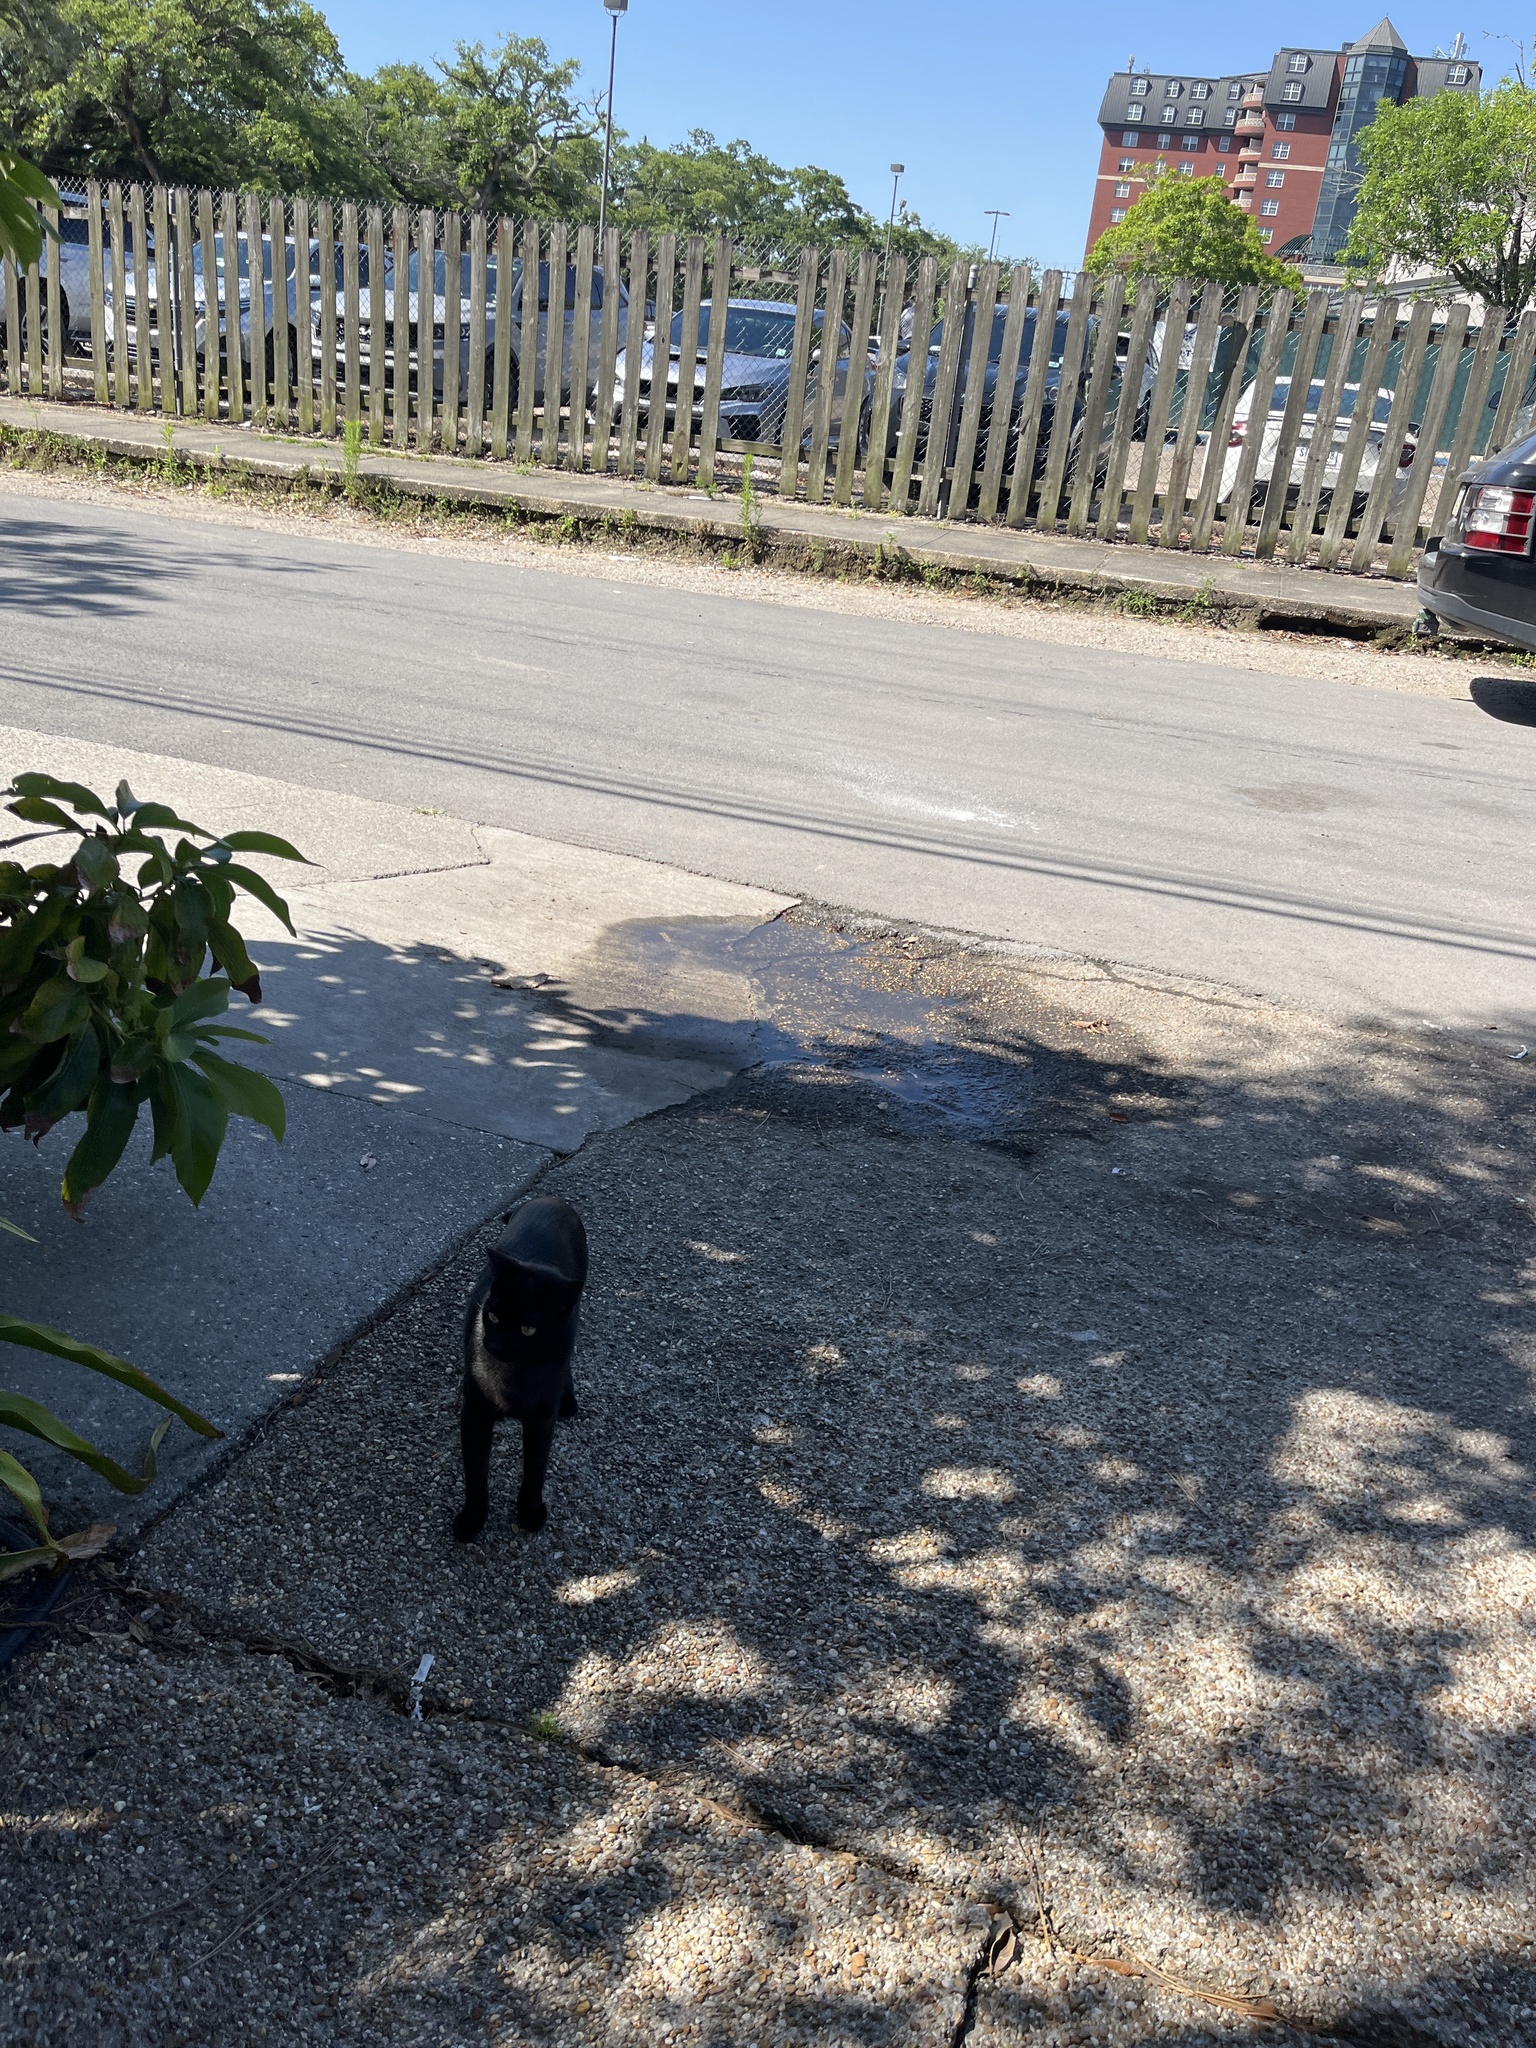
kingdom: Animalia
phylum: Chordata
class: Mammalia
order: Carnivora
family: Felidae
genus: Felis
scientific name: Felis catus
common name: Domestic cat
